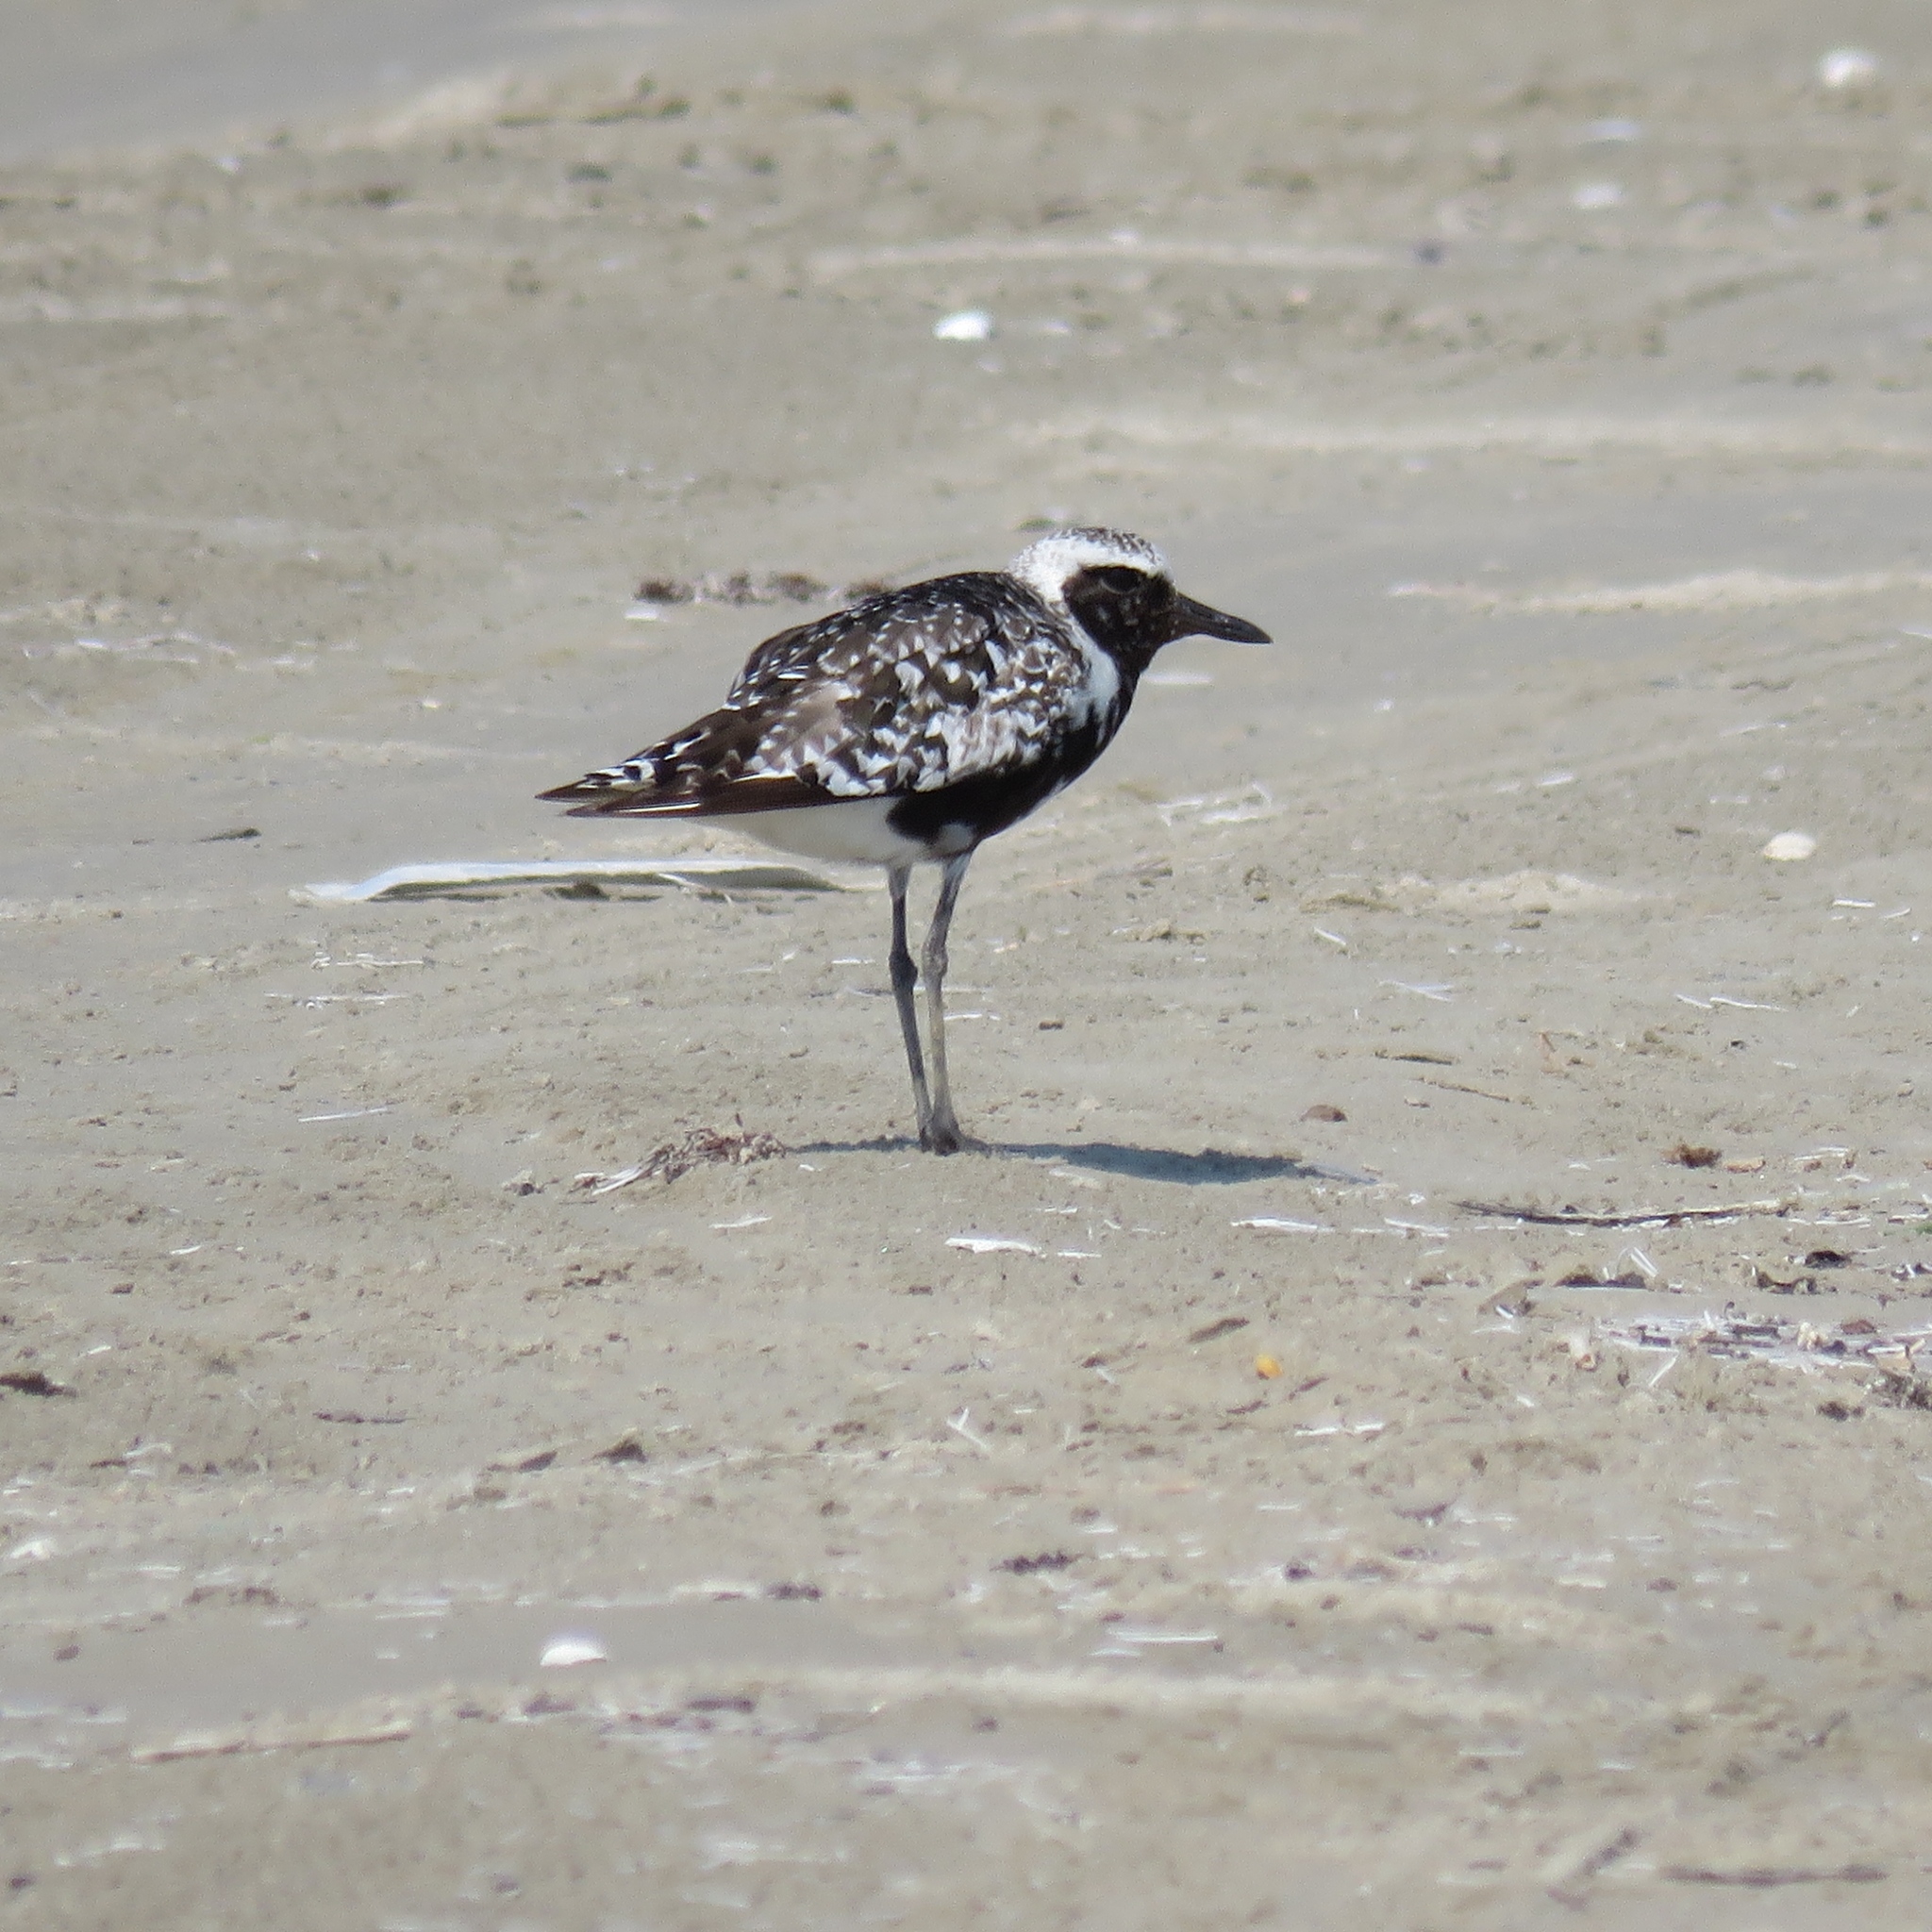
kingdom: Animalia
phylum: Chordata
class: Aves
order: Charadriiformes
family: Charadriidae
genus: Pluvialis
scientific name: Pluvialis squatarola
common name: Grey plover
